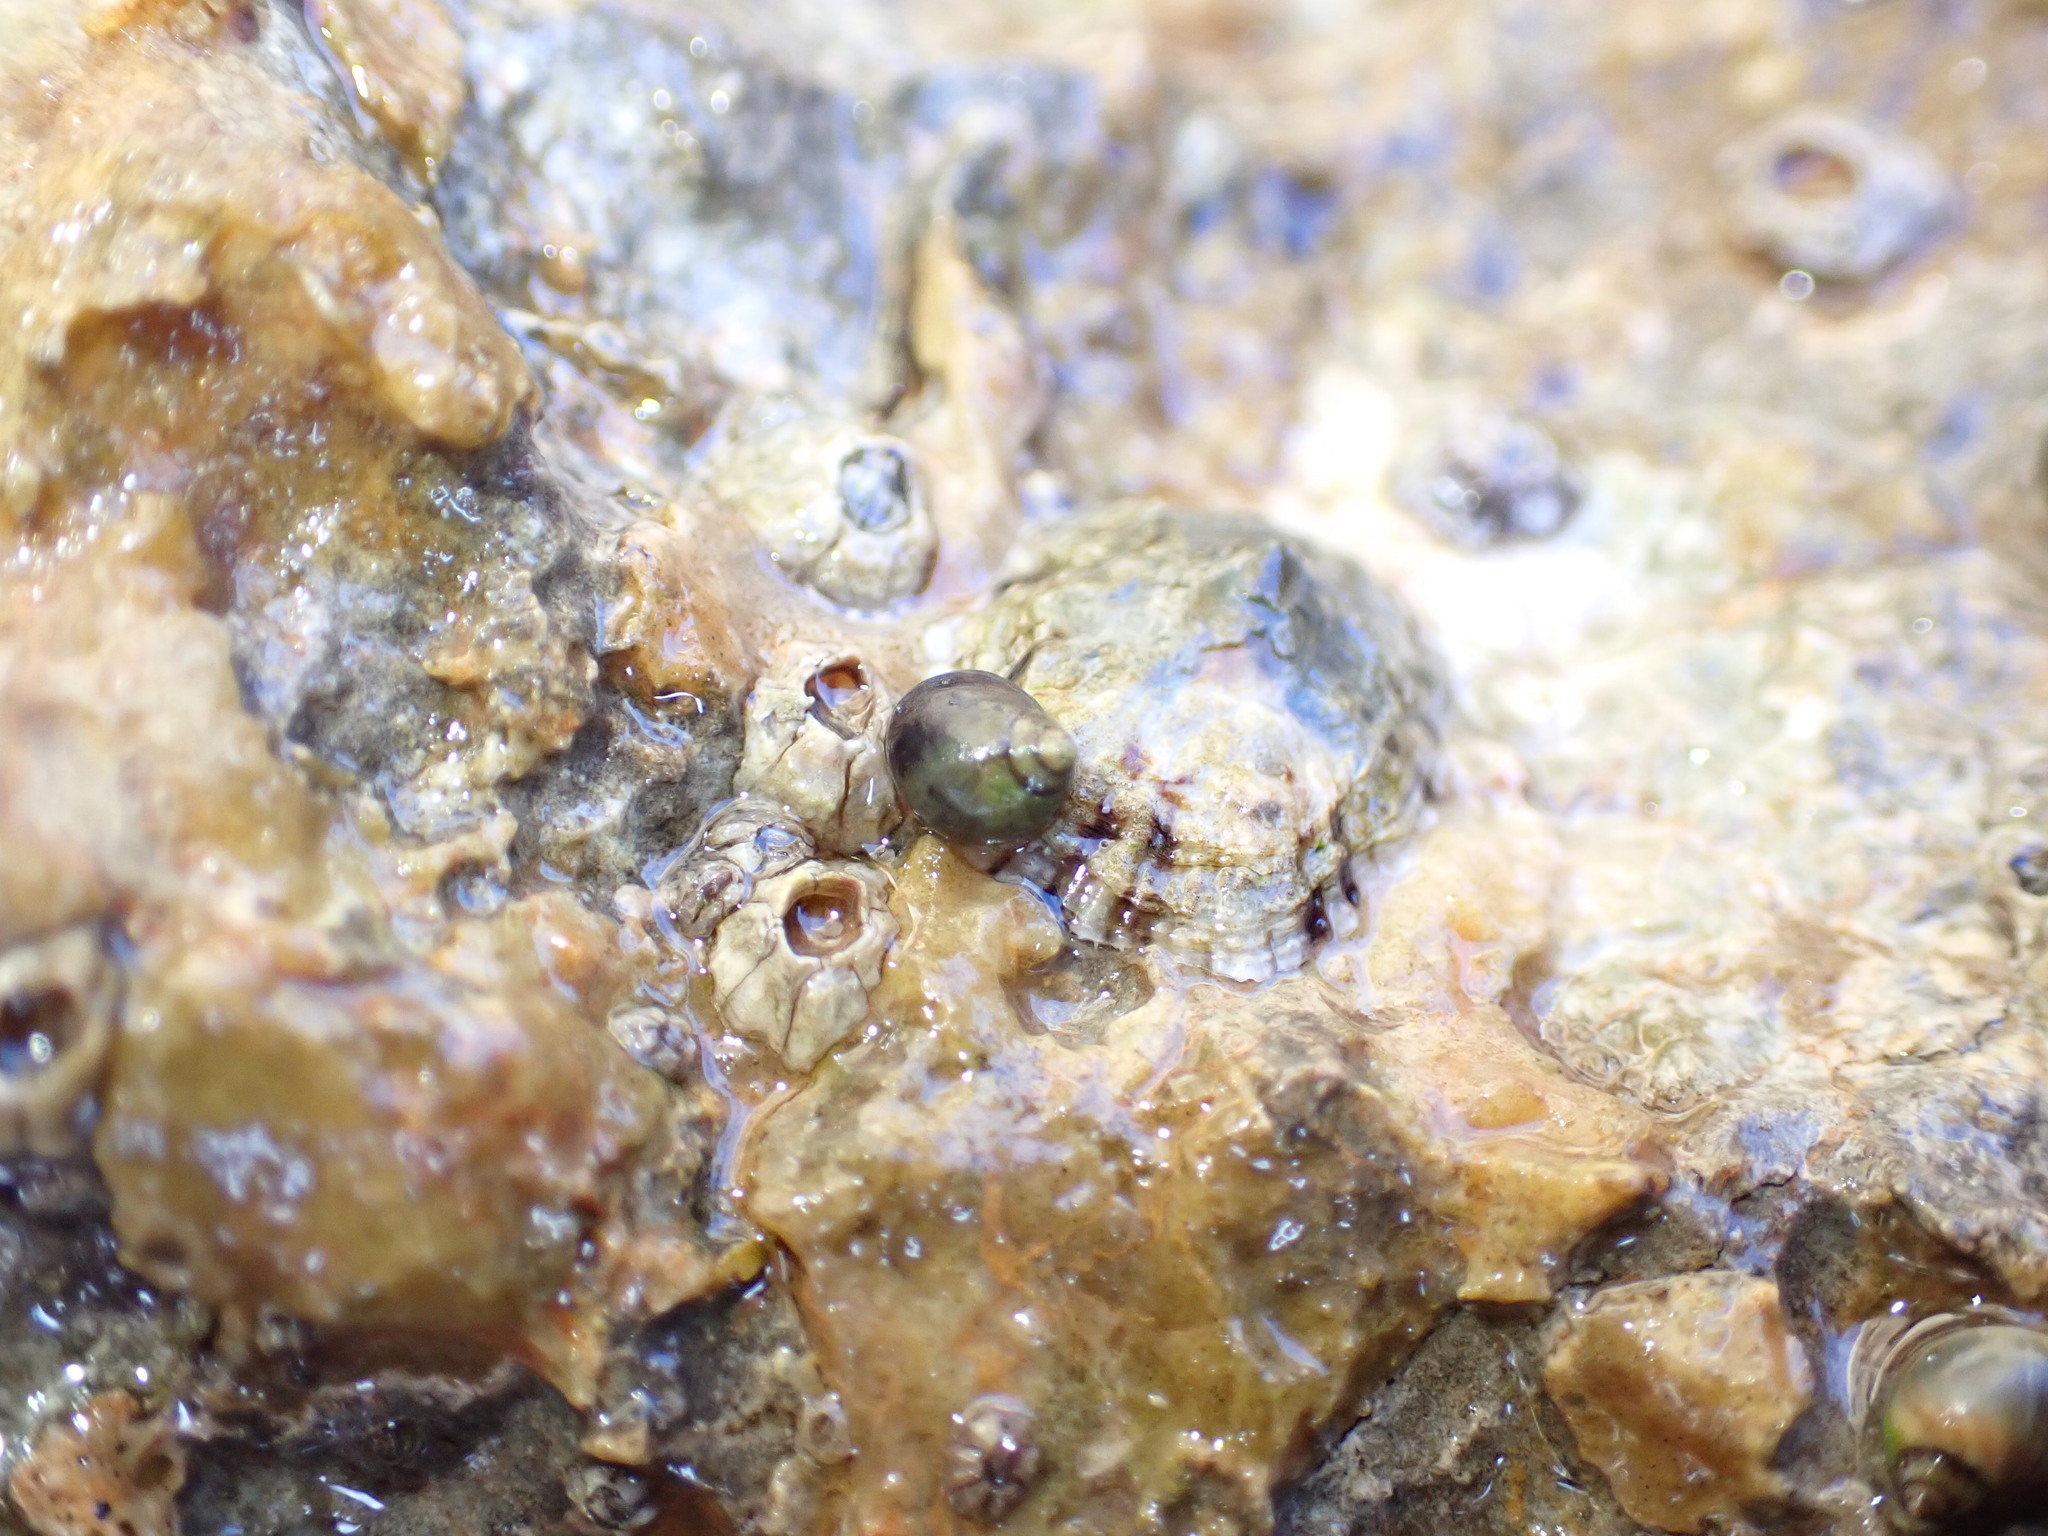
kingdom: Animalia
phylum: Mollusca
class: Gastropoda
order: Littorinimorpha
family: Littorinidae
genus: Melarhaphe
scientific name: Melarhaphe neritoides
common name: Small periwinkle
